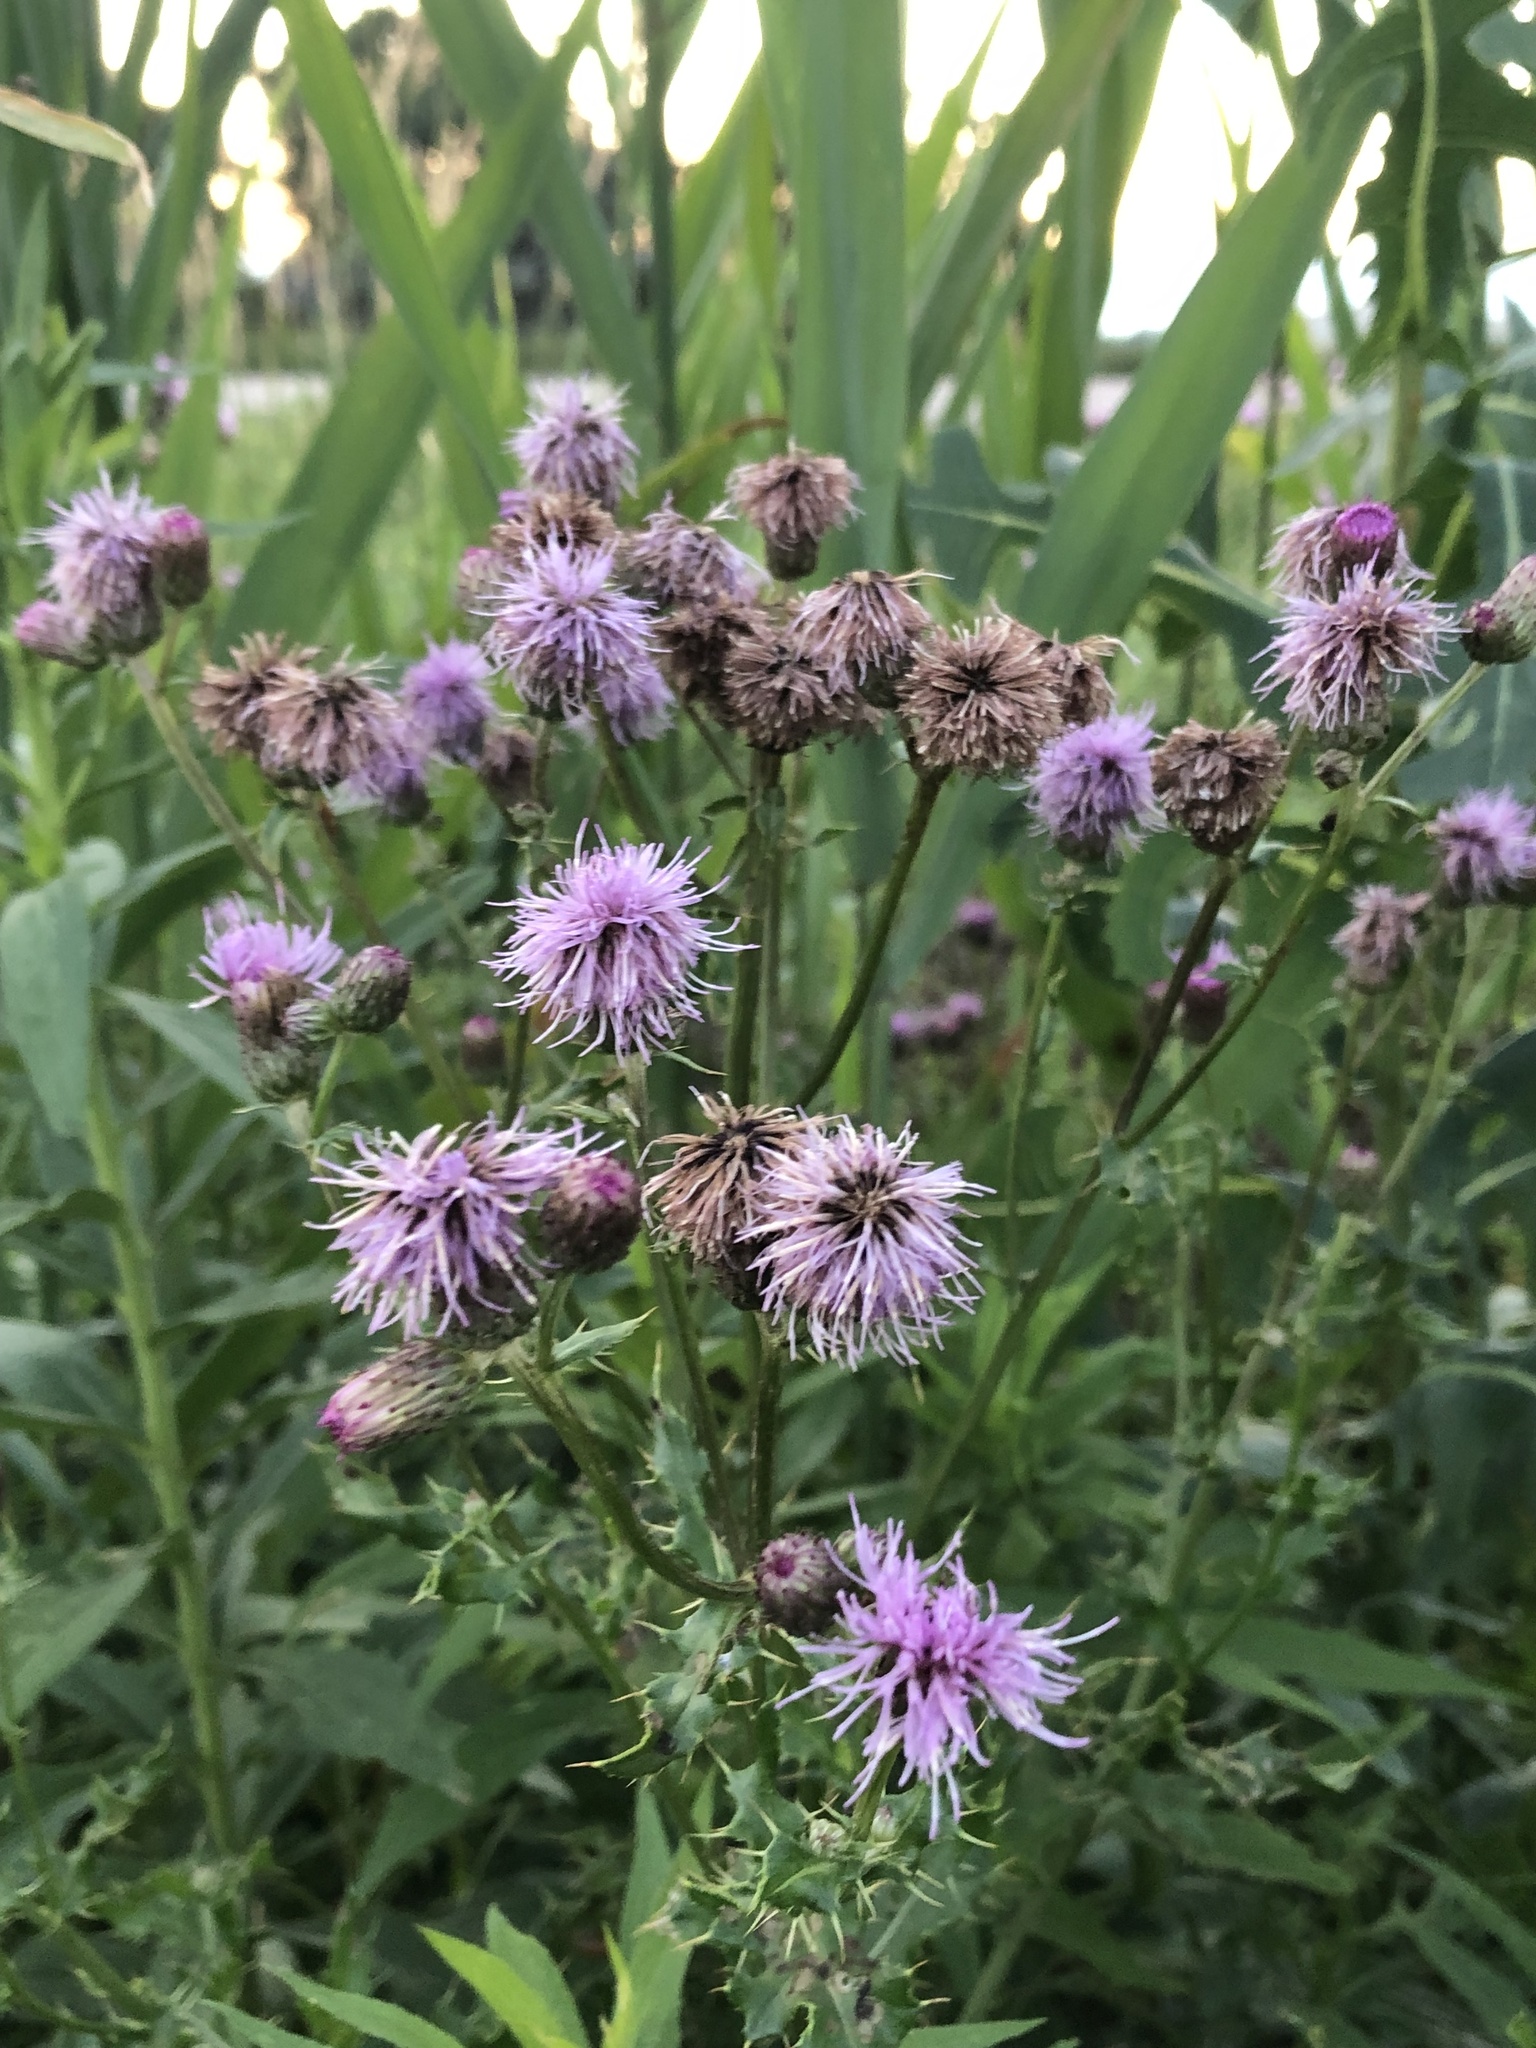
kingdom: Plantae
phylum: Tracheophyta
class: Magnoliopsida
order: Asterales
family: Asteraceae
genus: Cirsium
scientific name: Cirsium arvense
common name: Creeping thistle
